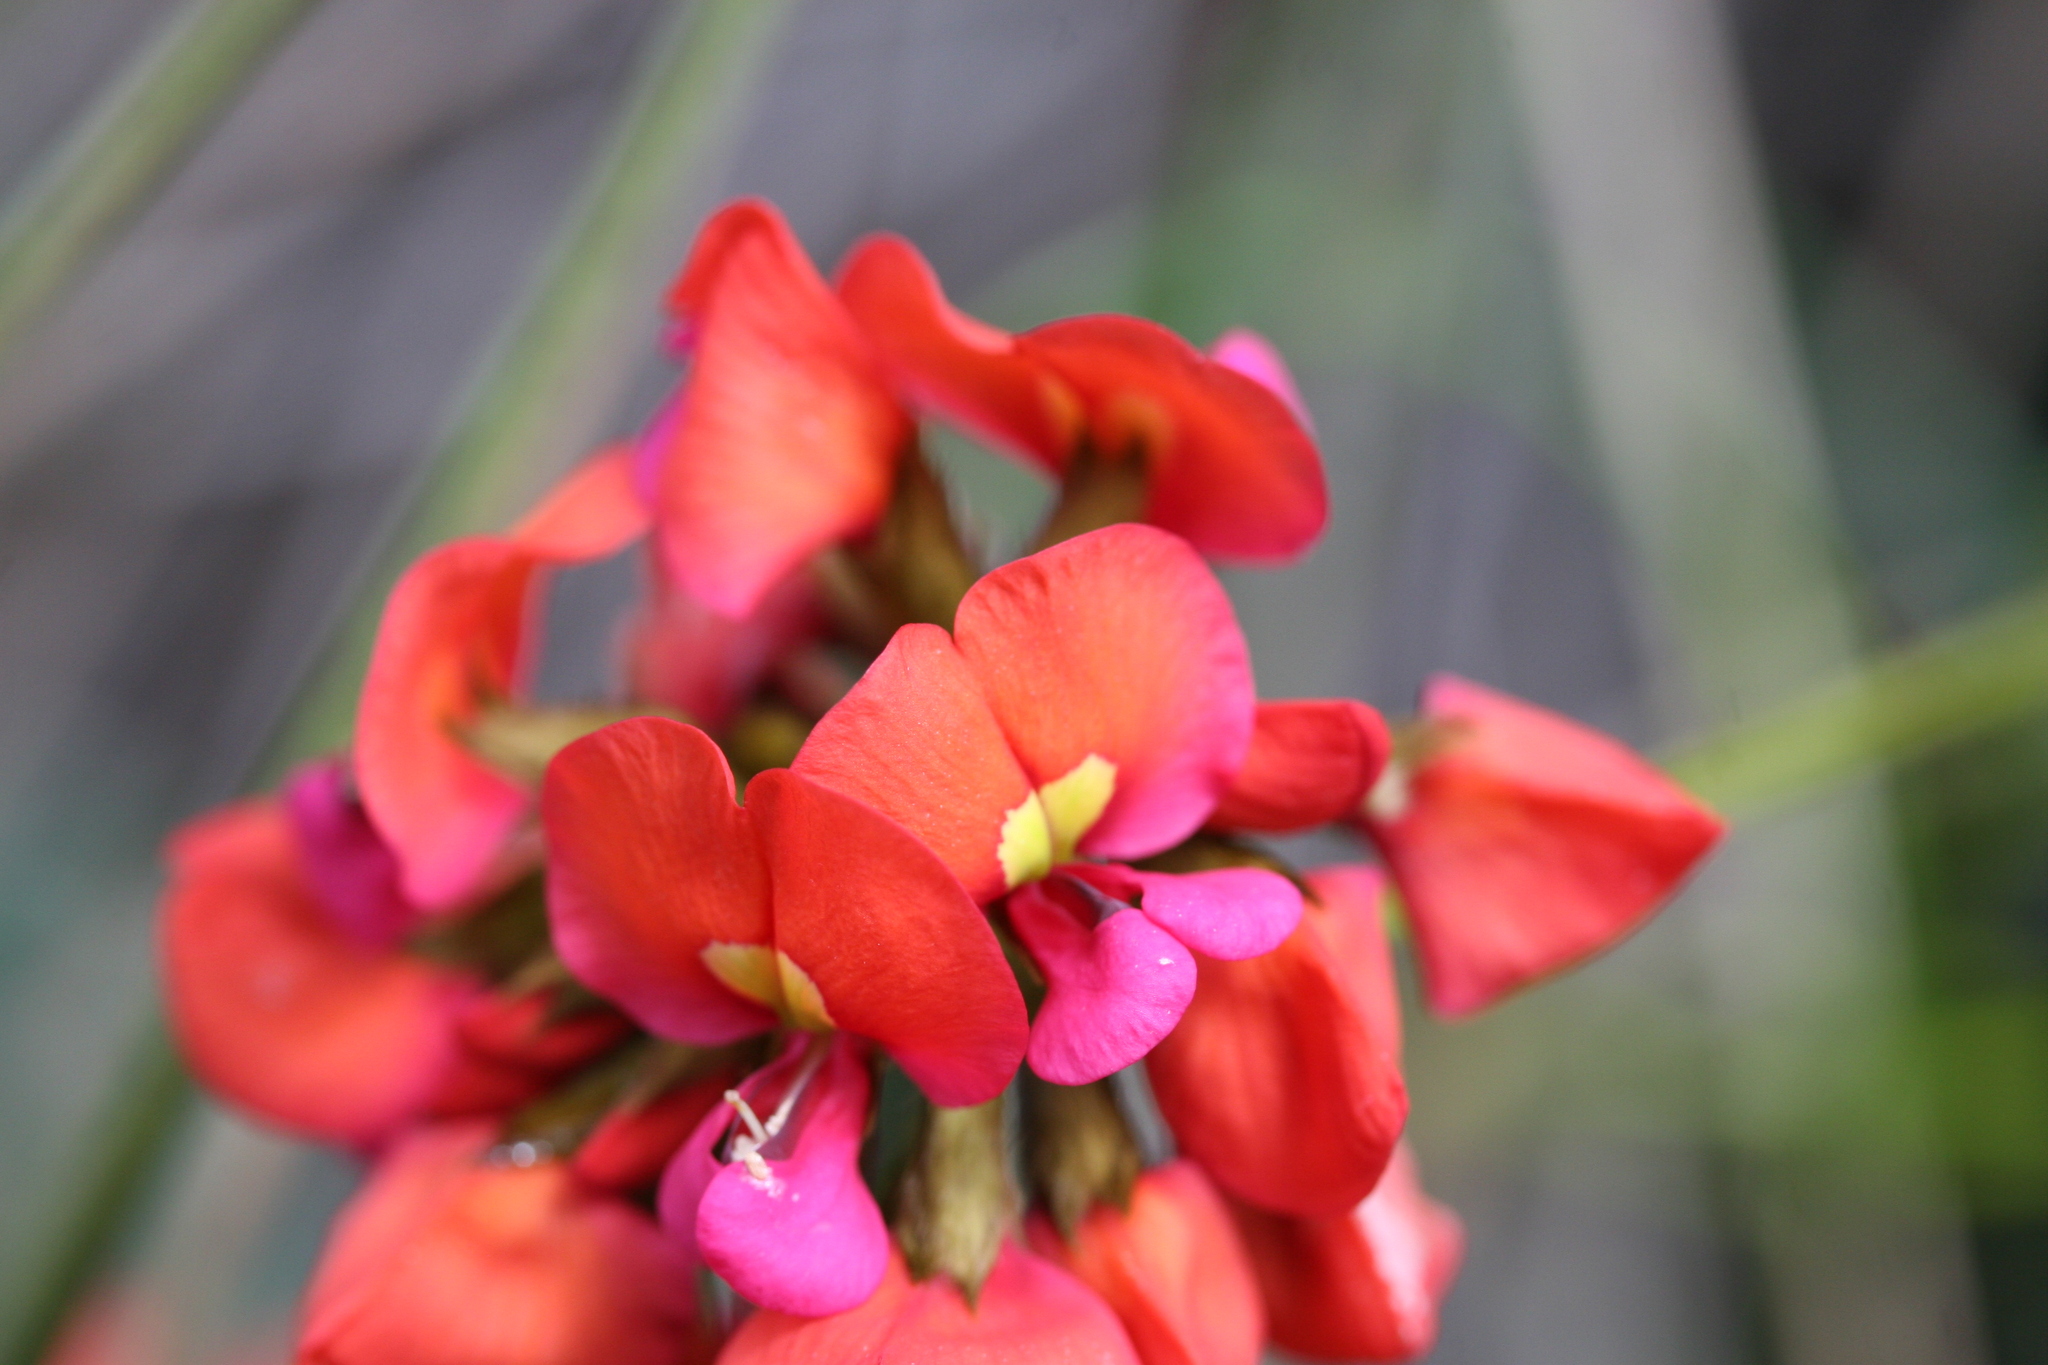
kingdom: Plantae
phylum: Tracheophyta
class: Magnoliopsida
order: Fabales
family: Fabaceae
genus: Kennedia
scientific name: Kennedia coccinea
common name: Coralvine
